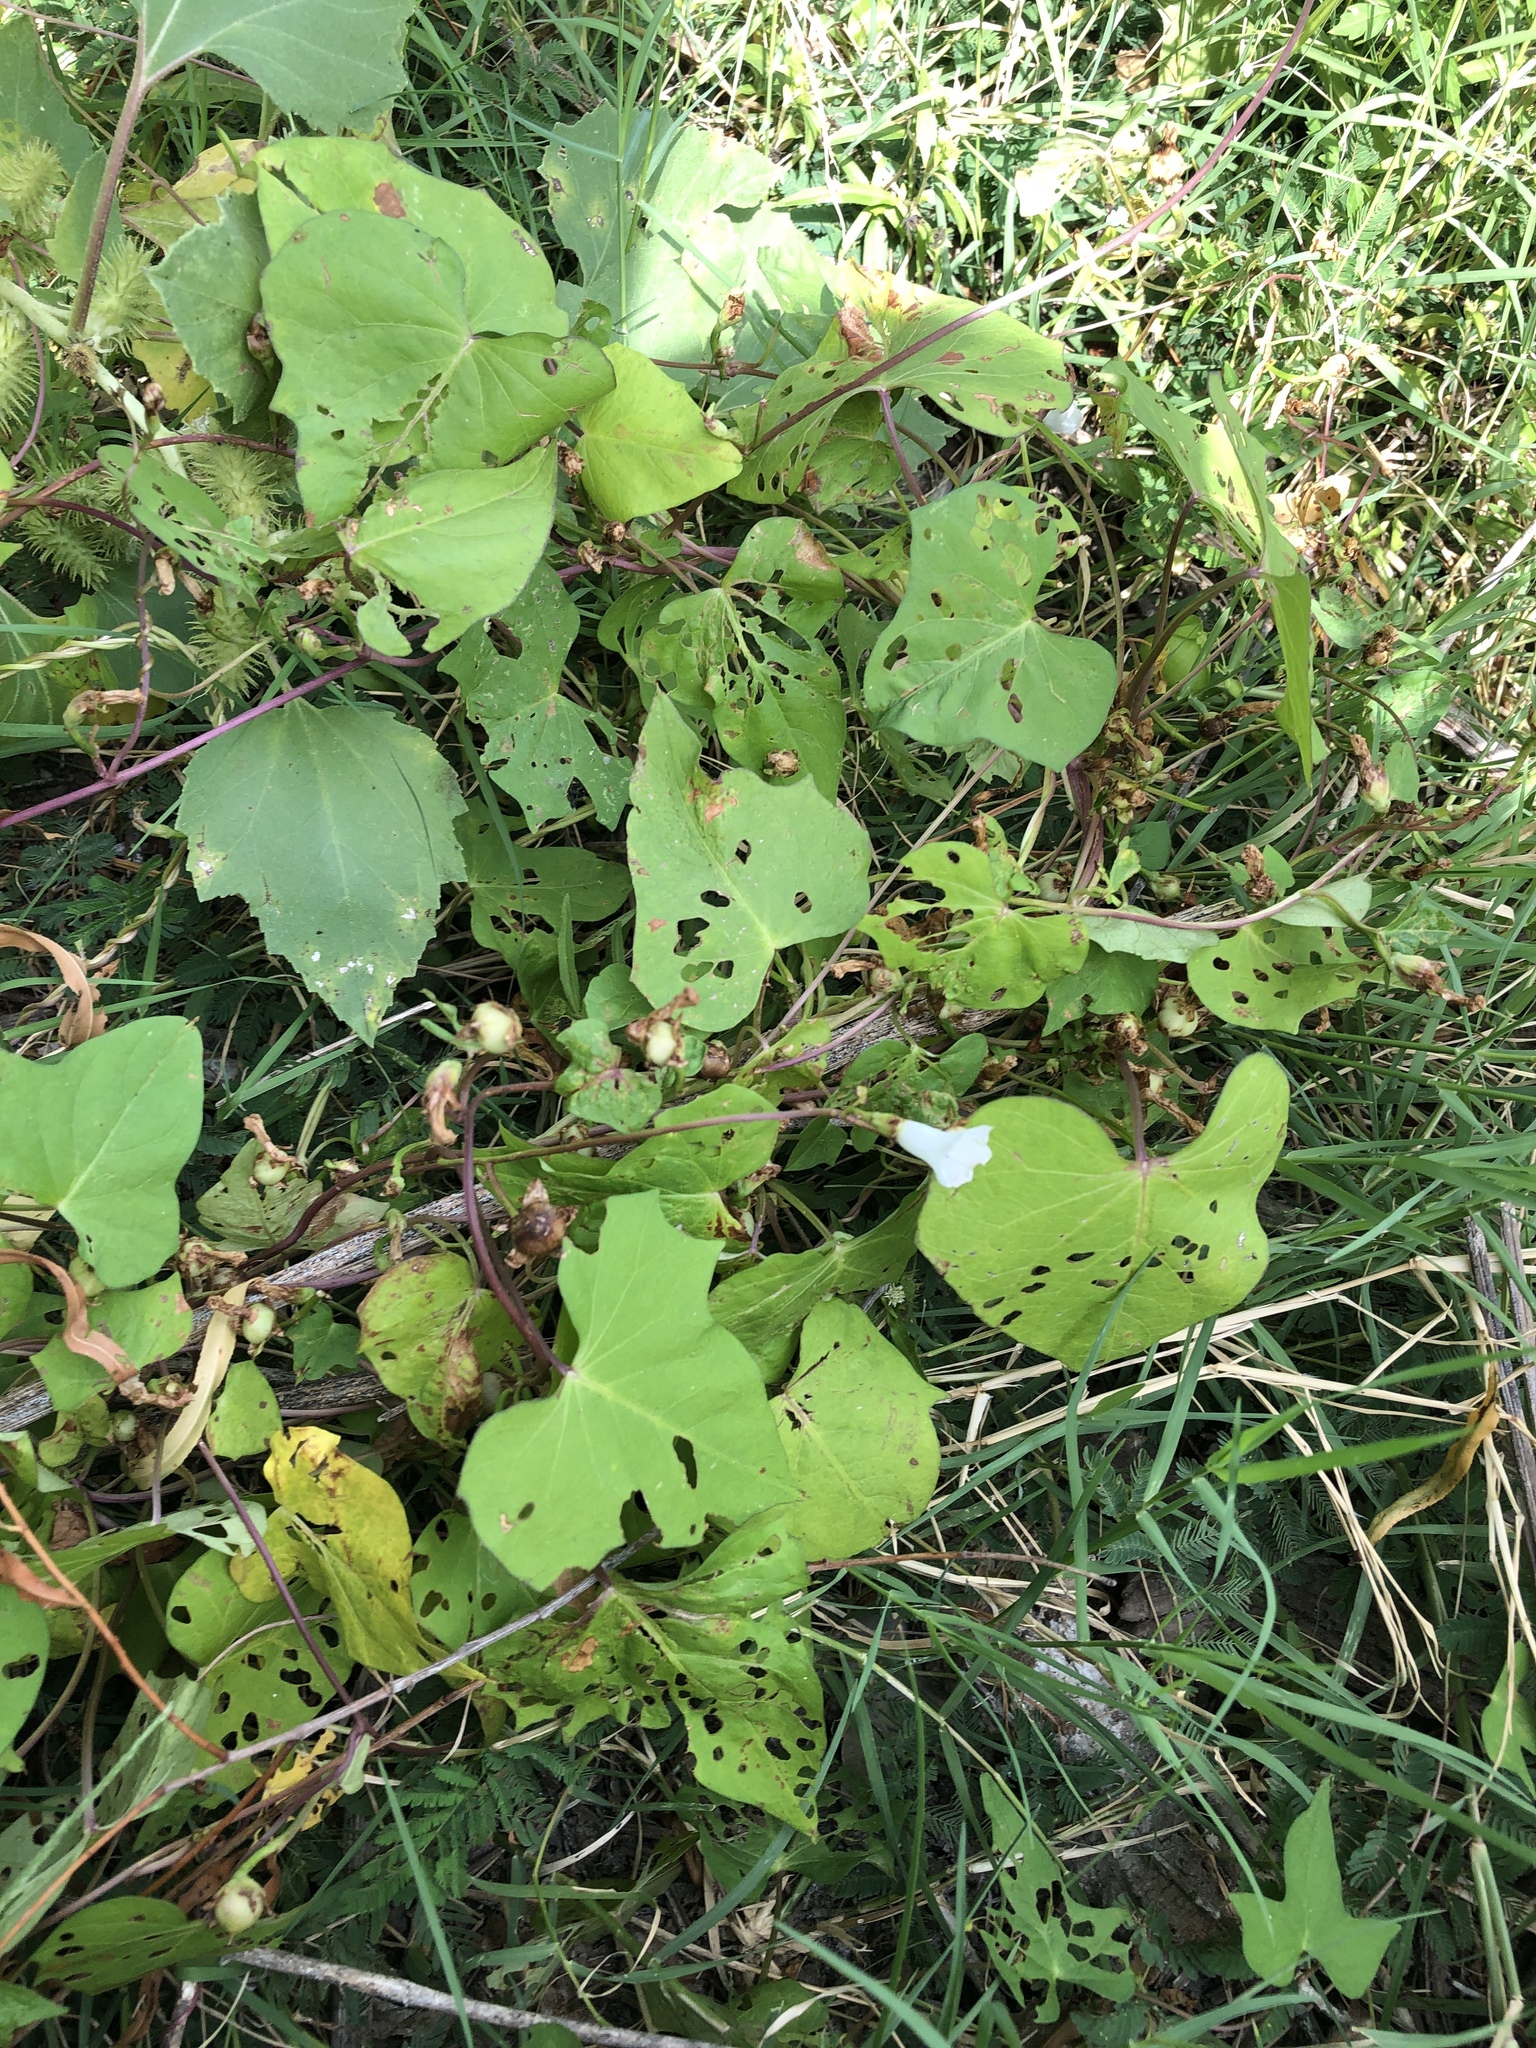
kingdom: Plantae
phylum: Tracheophyta
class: Magnoliopsida
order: Solanales
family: Convolvulaceae
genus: Ipomoea
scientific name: Ipomoea lacunosa
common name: White morning-glory
